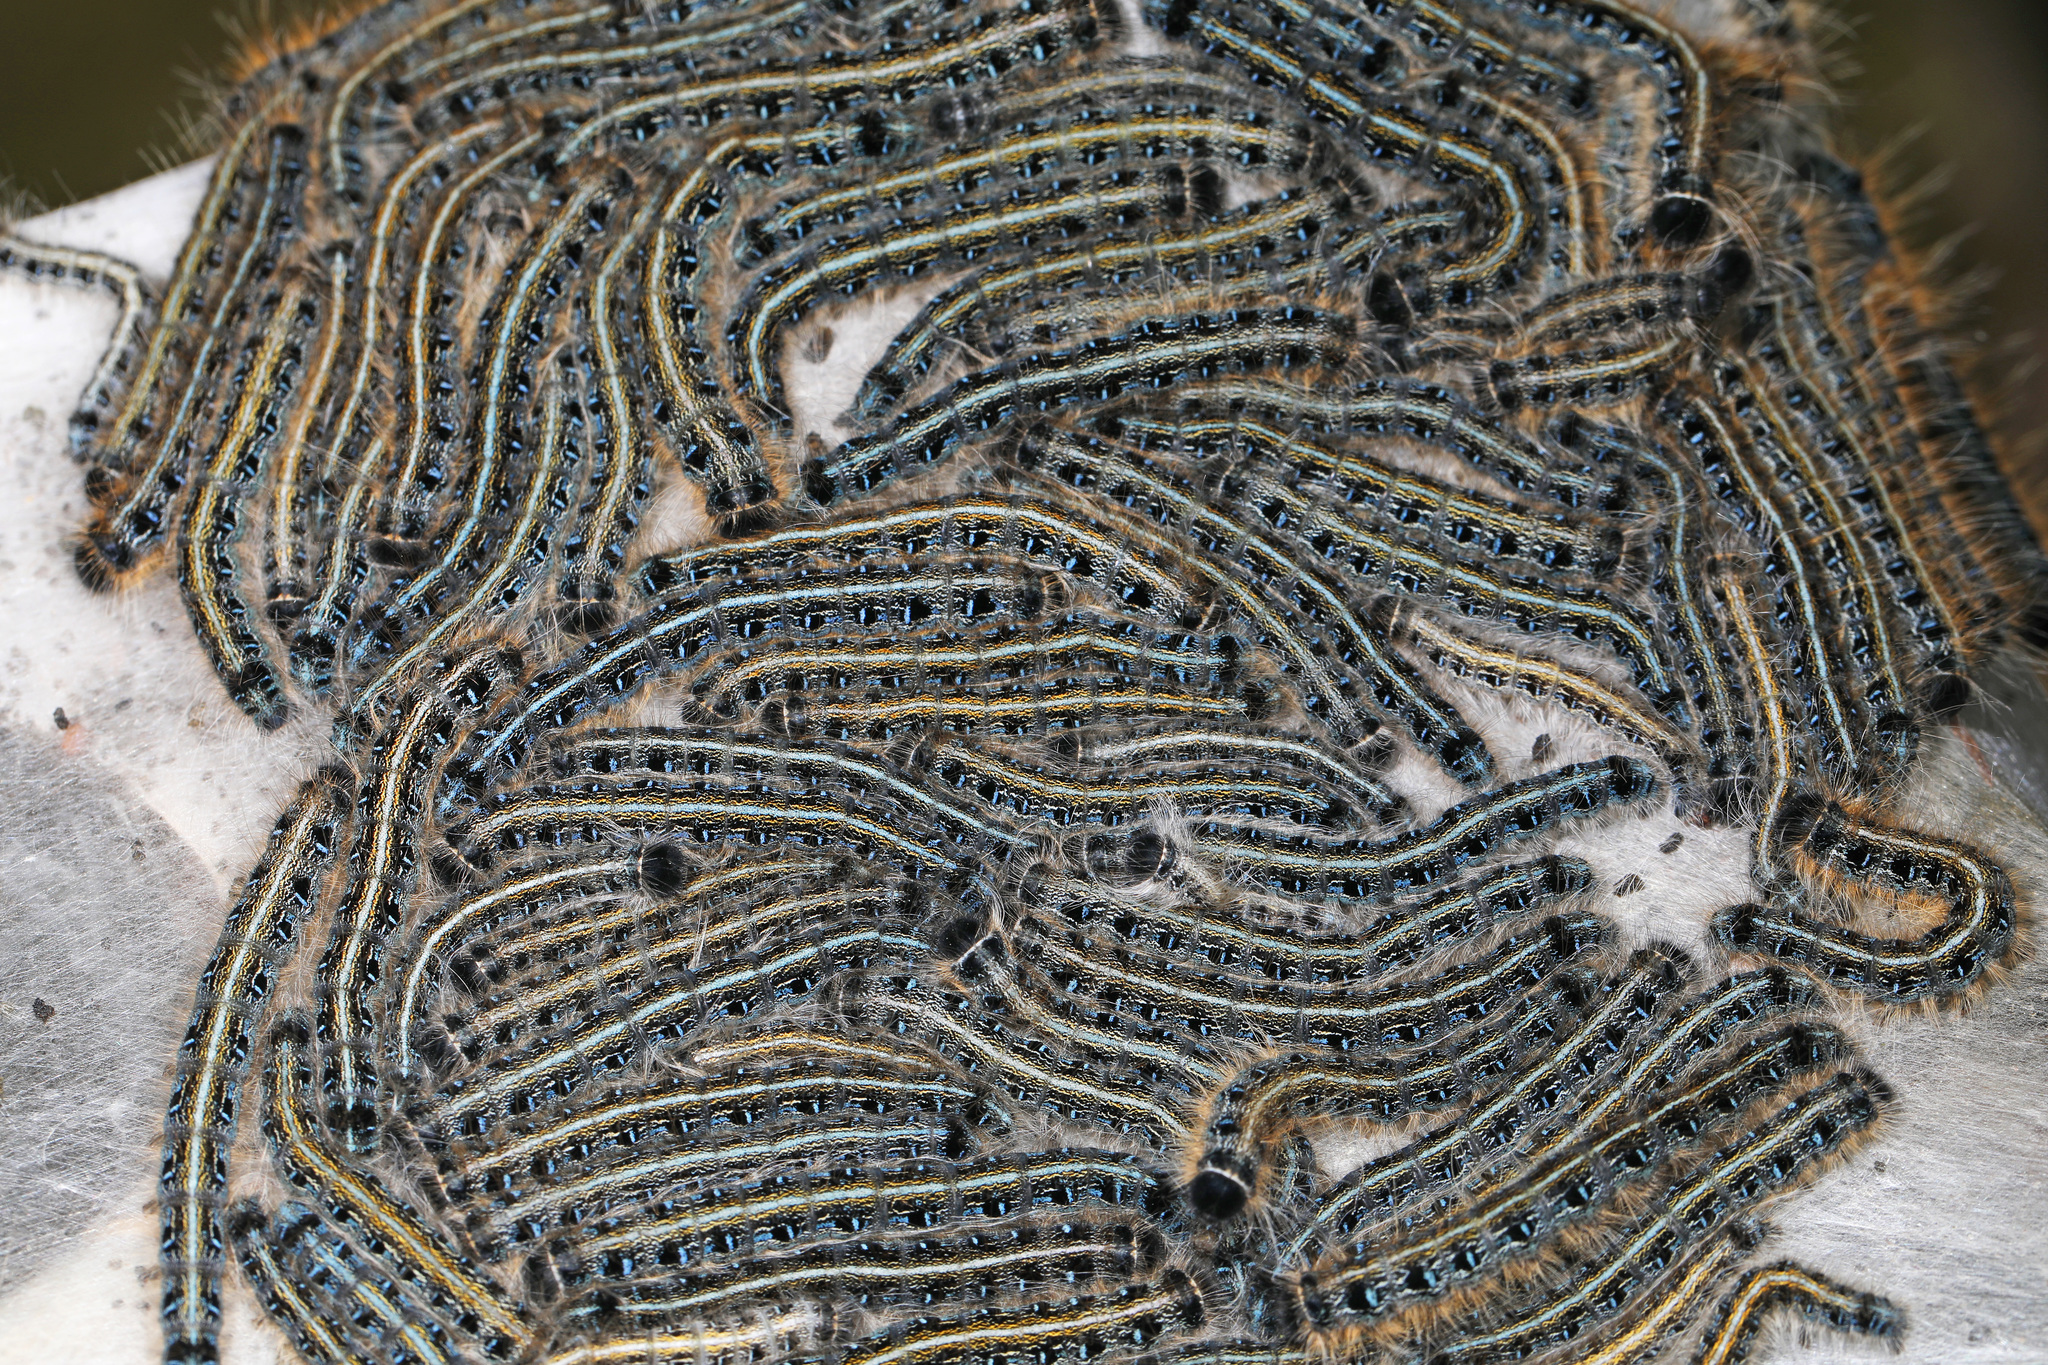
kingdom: Animalia
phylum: Arthropoda
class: Insecta
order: Lepidoptera
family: Lasiocampidae
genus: Malacosoma
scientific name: Malacosoma americana
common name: Eastern tent caterpillar moth
